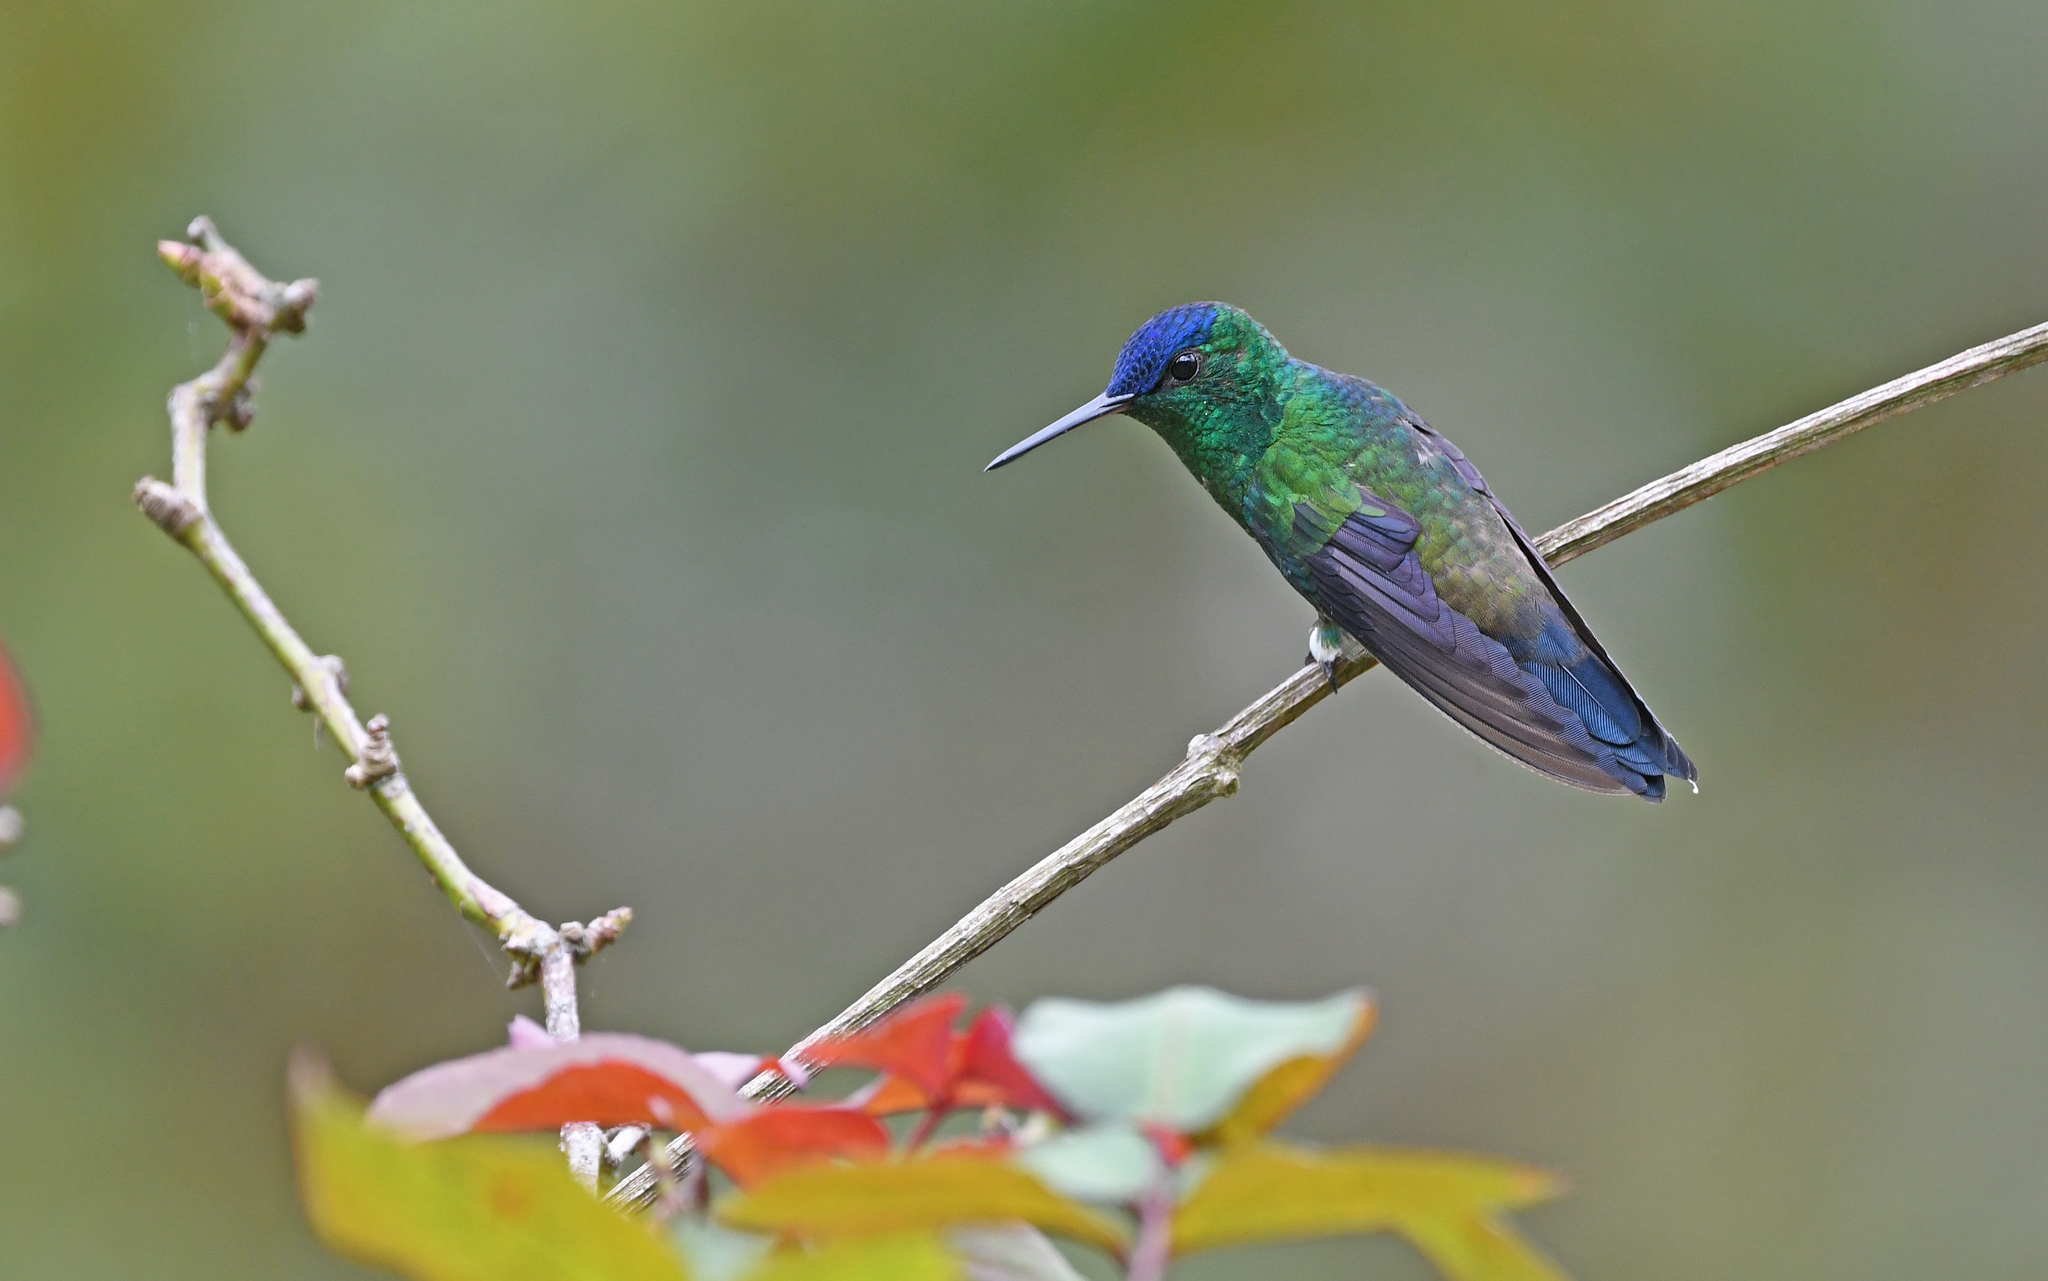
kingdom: Animalia
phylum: Chordata
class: Aves
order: Apodiformes
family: Trochilidae
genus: Saucerottia
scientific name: Saucerottia cyanifrons
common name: Indigo-capped hummingbird
